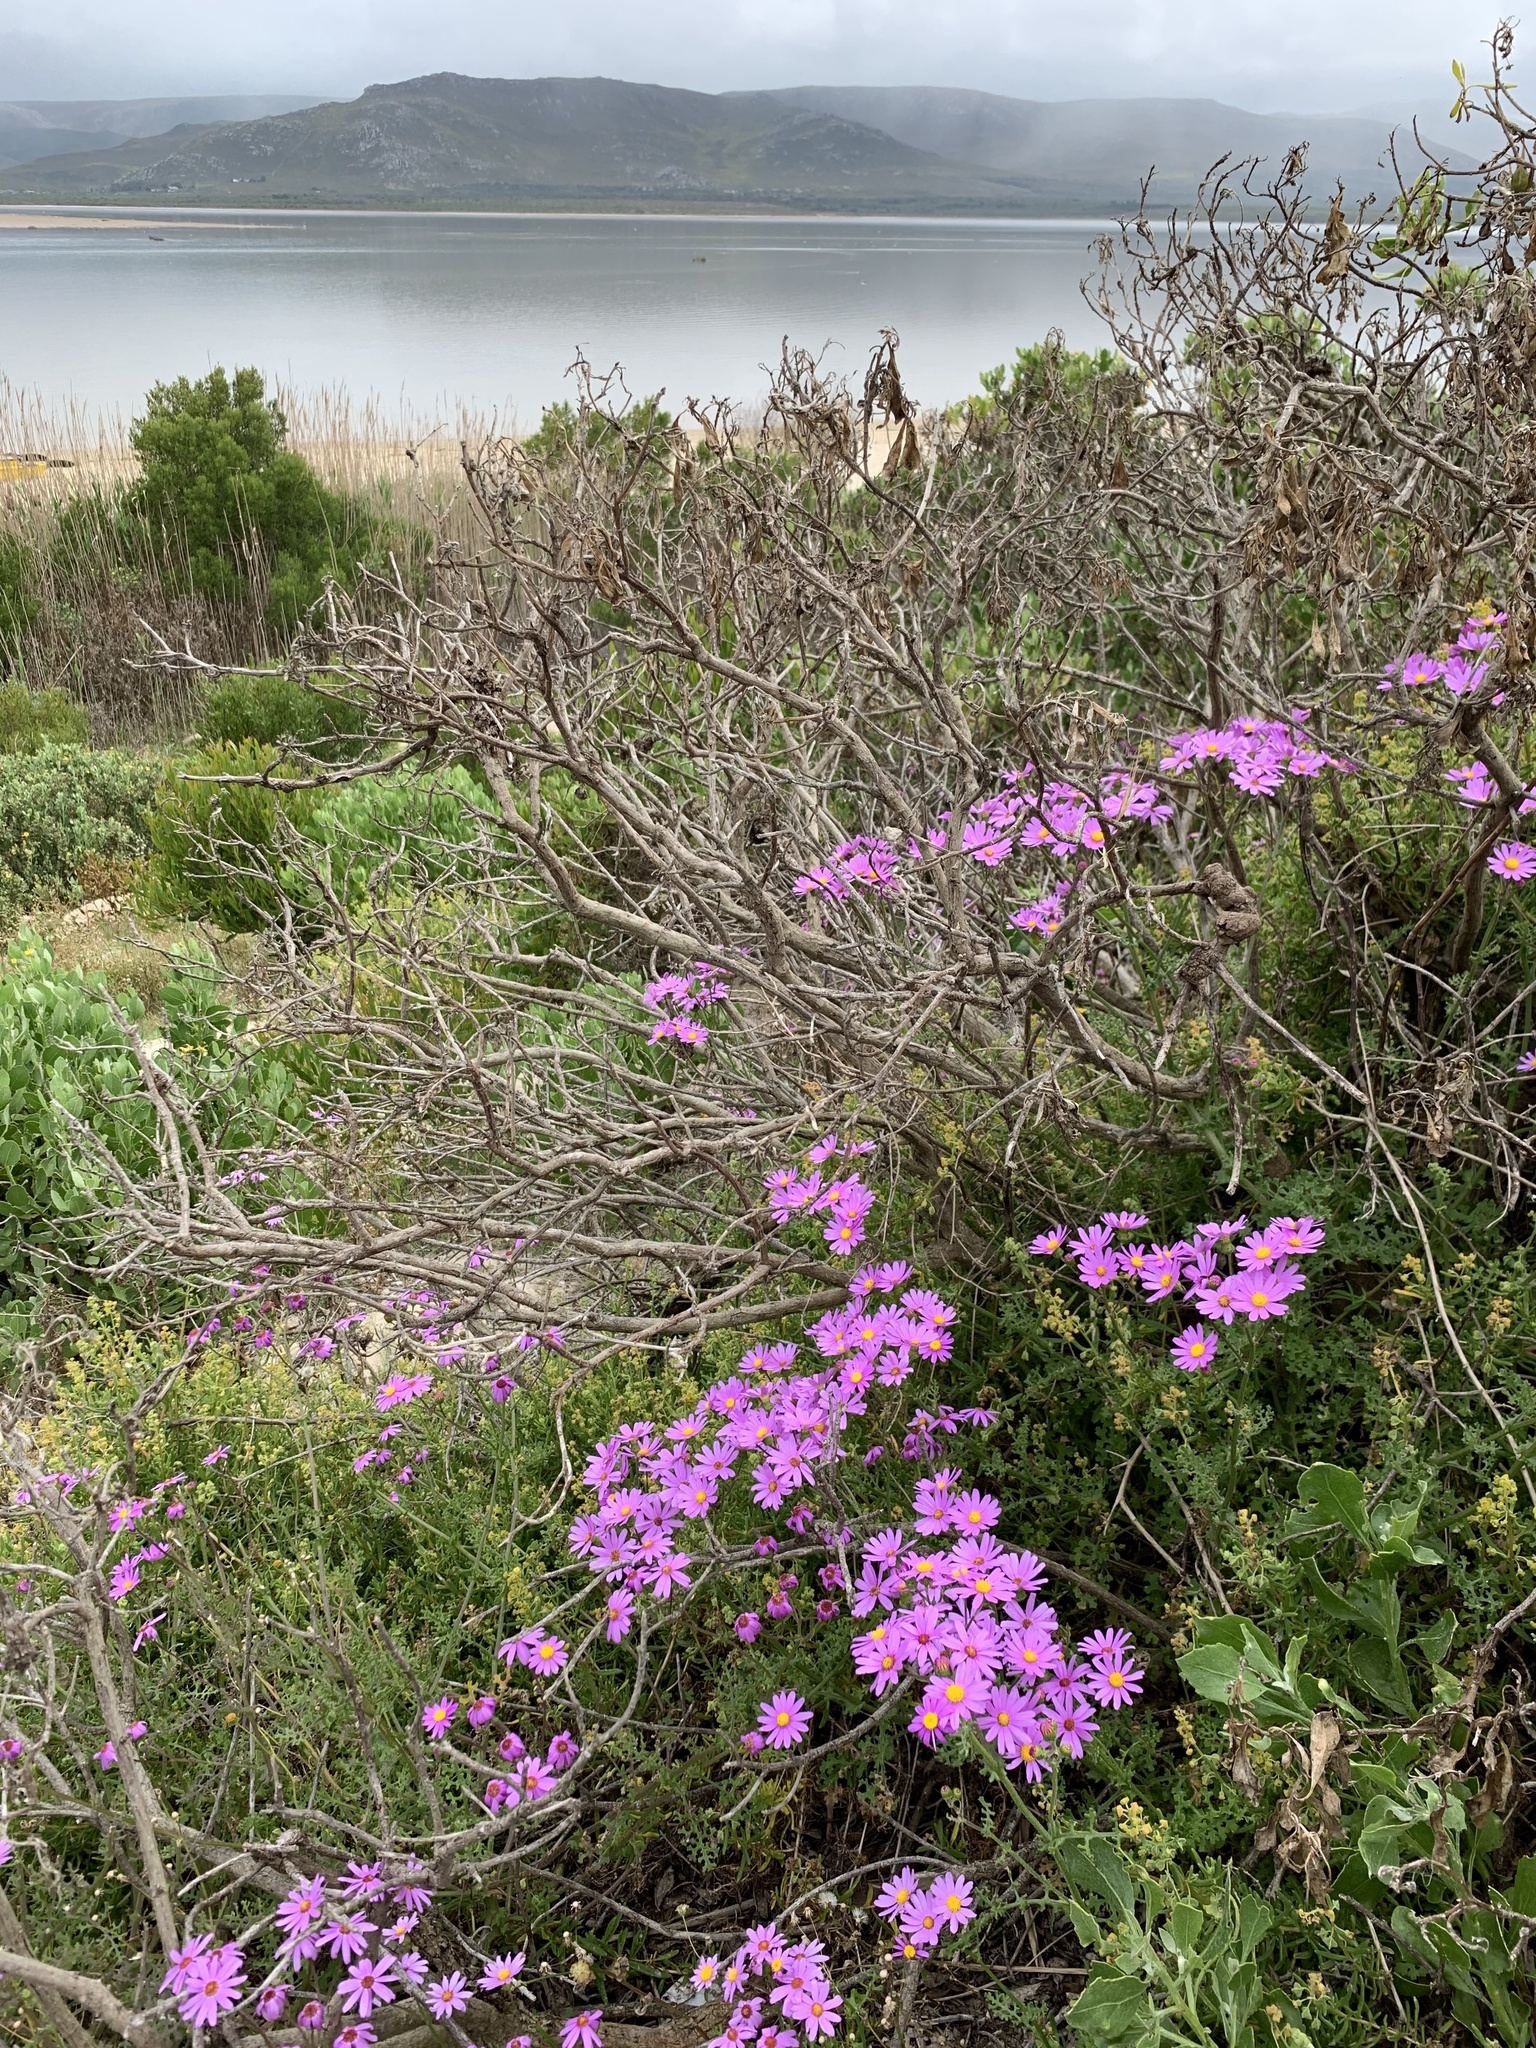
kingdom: Plantae
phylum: Tracheophyta
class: Magnoliopsida
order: Asterales
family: Asteraceae
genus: Senecio
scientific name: Senecio elegans
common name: Purple groundsel
